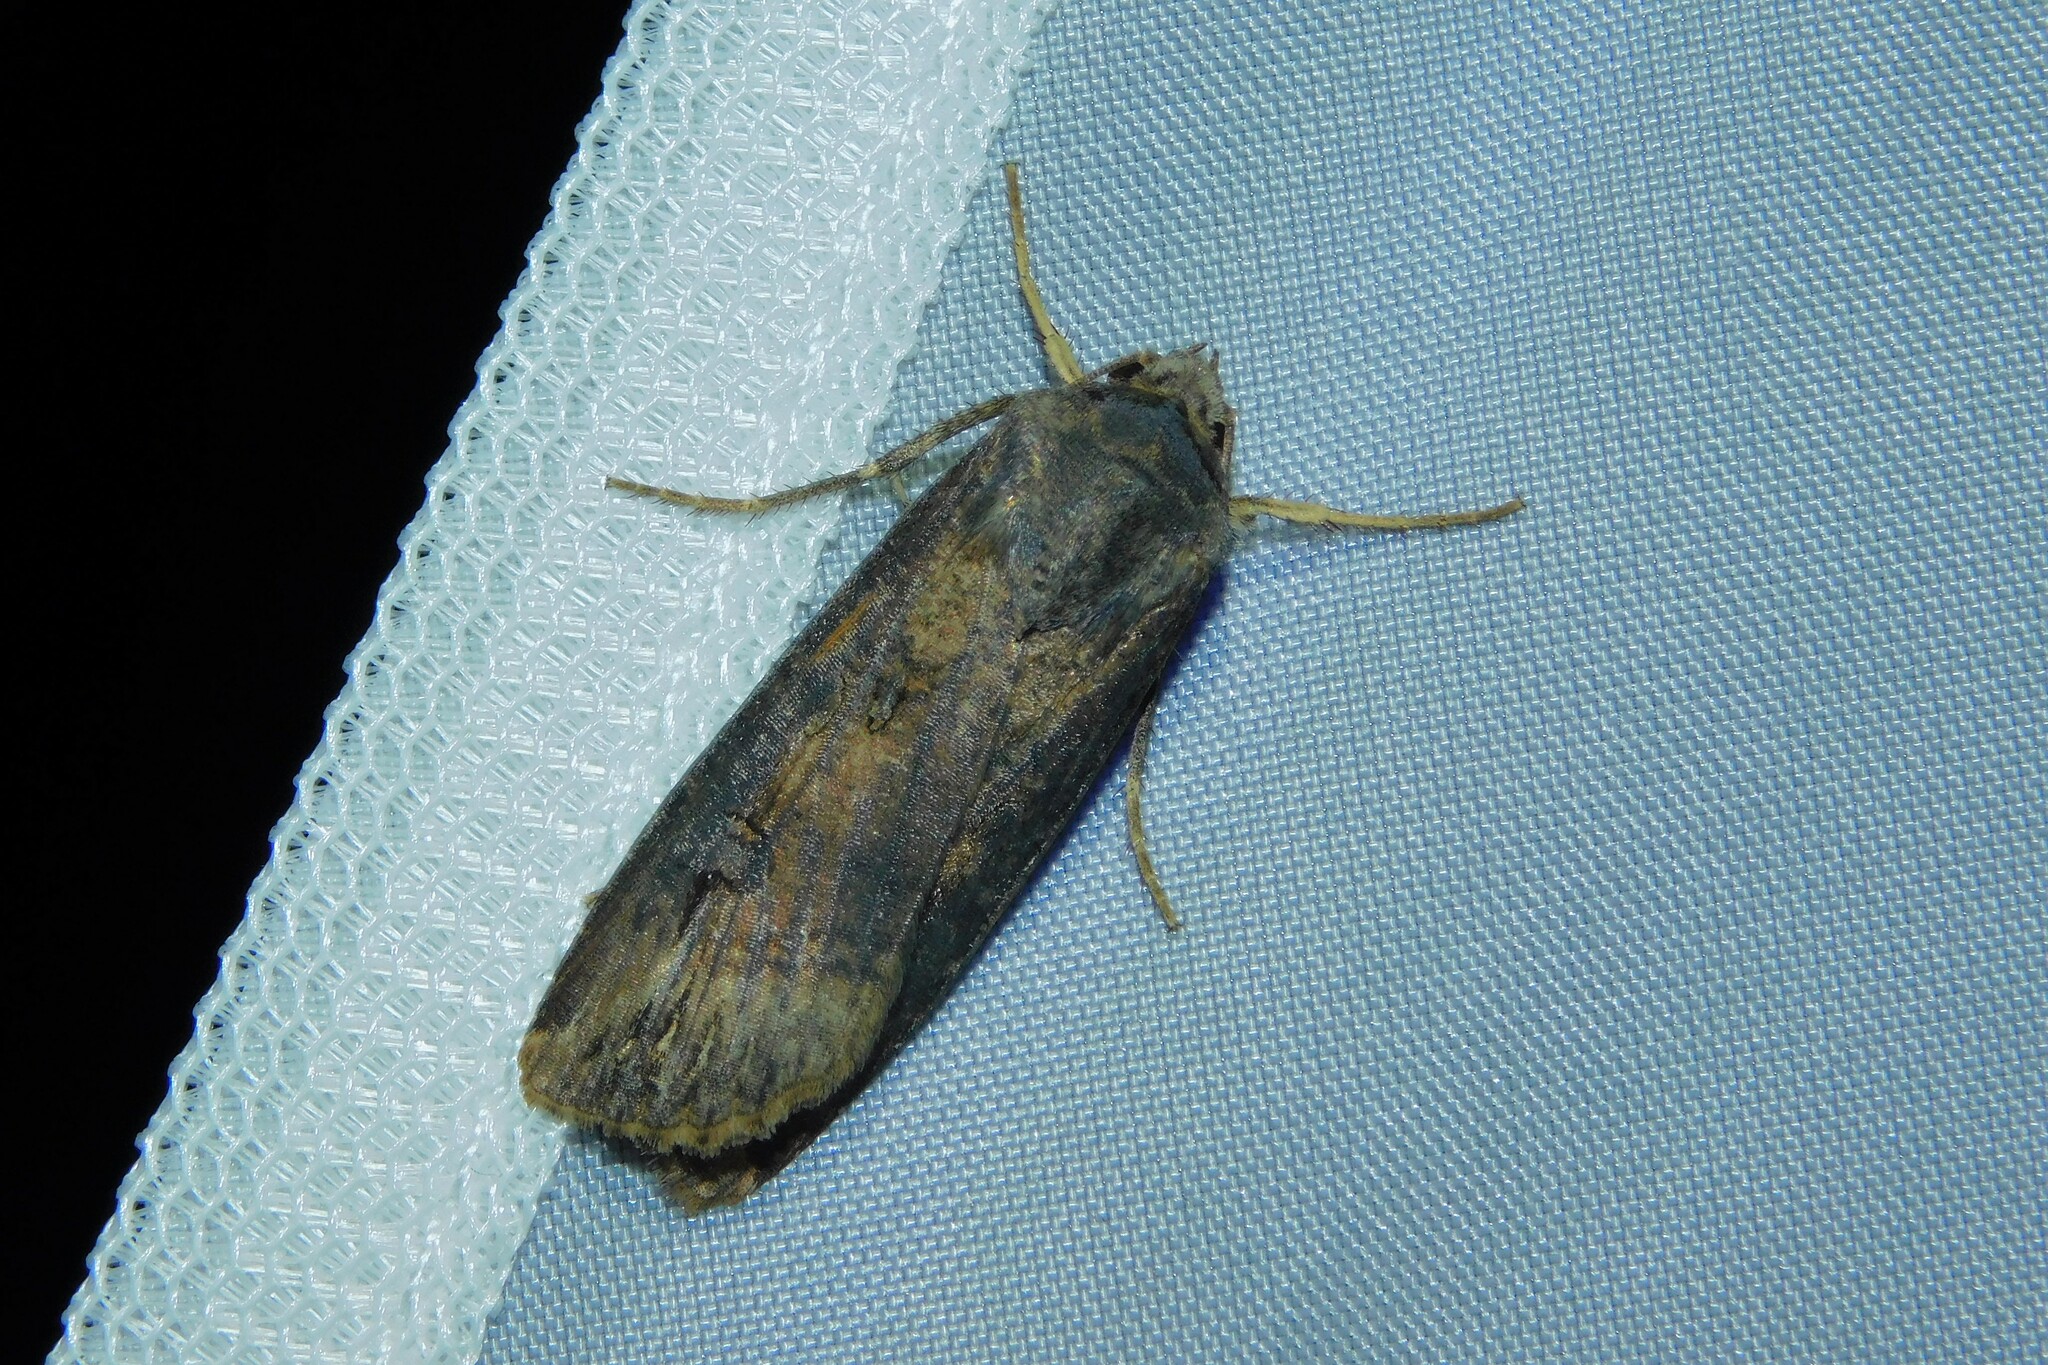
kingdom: Animalia
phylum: Arthropoda
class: Insecta
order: Lepidoptera
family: Noctuidae
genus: Agrotis
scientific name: Agrotis ipsilon
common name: Dark sword-grass
